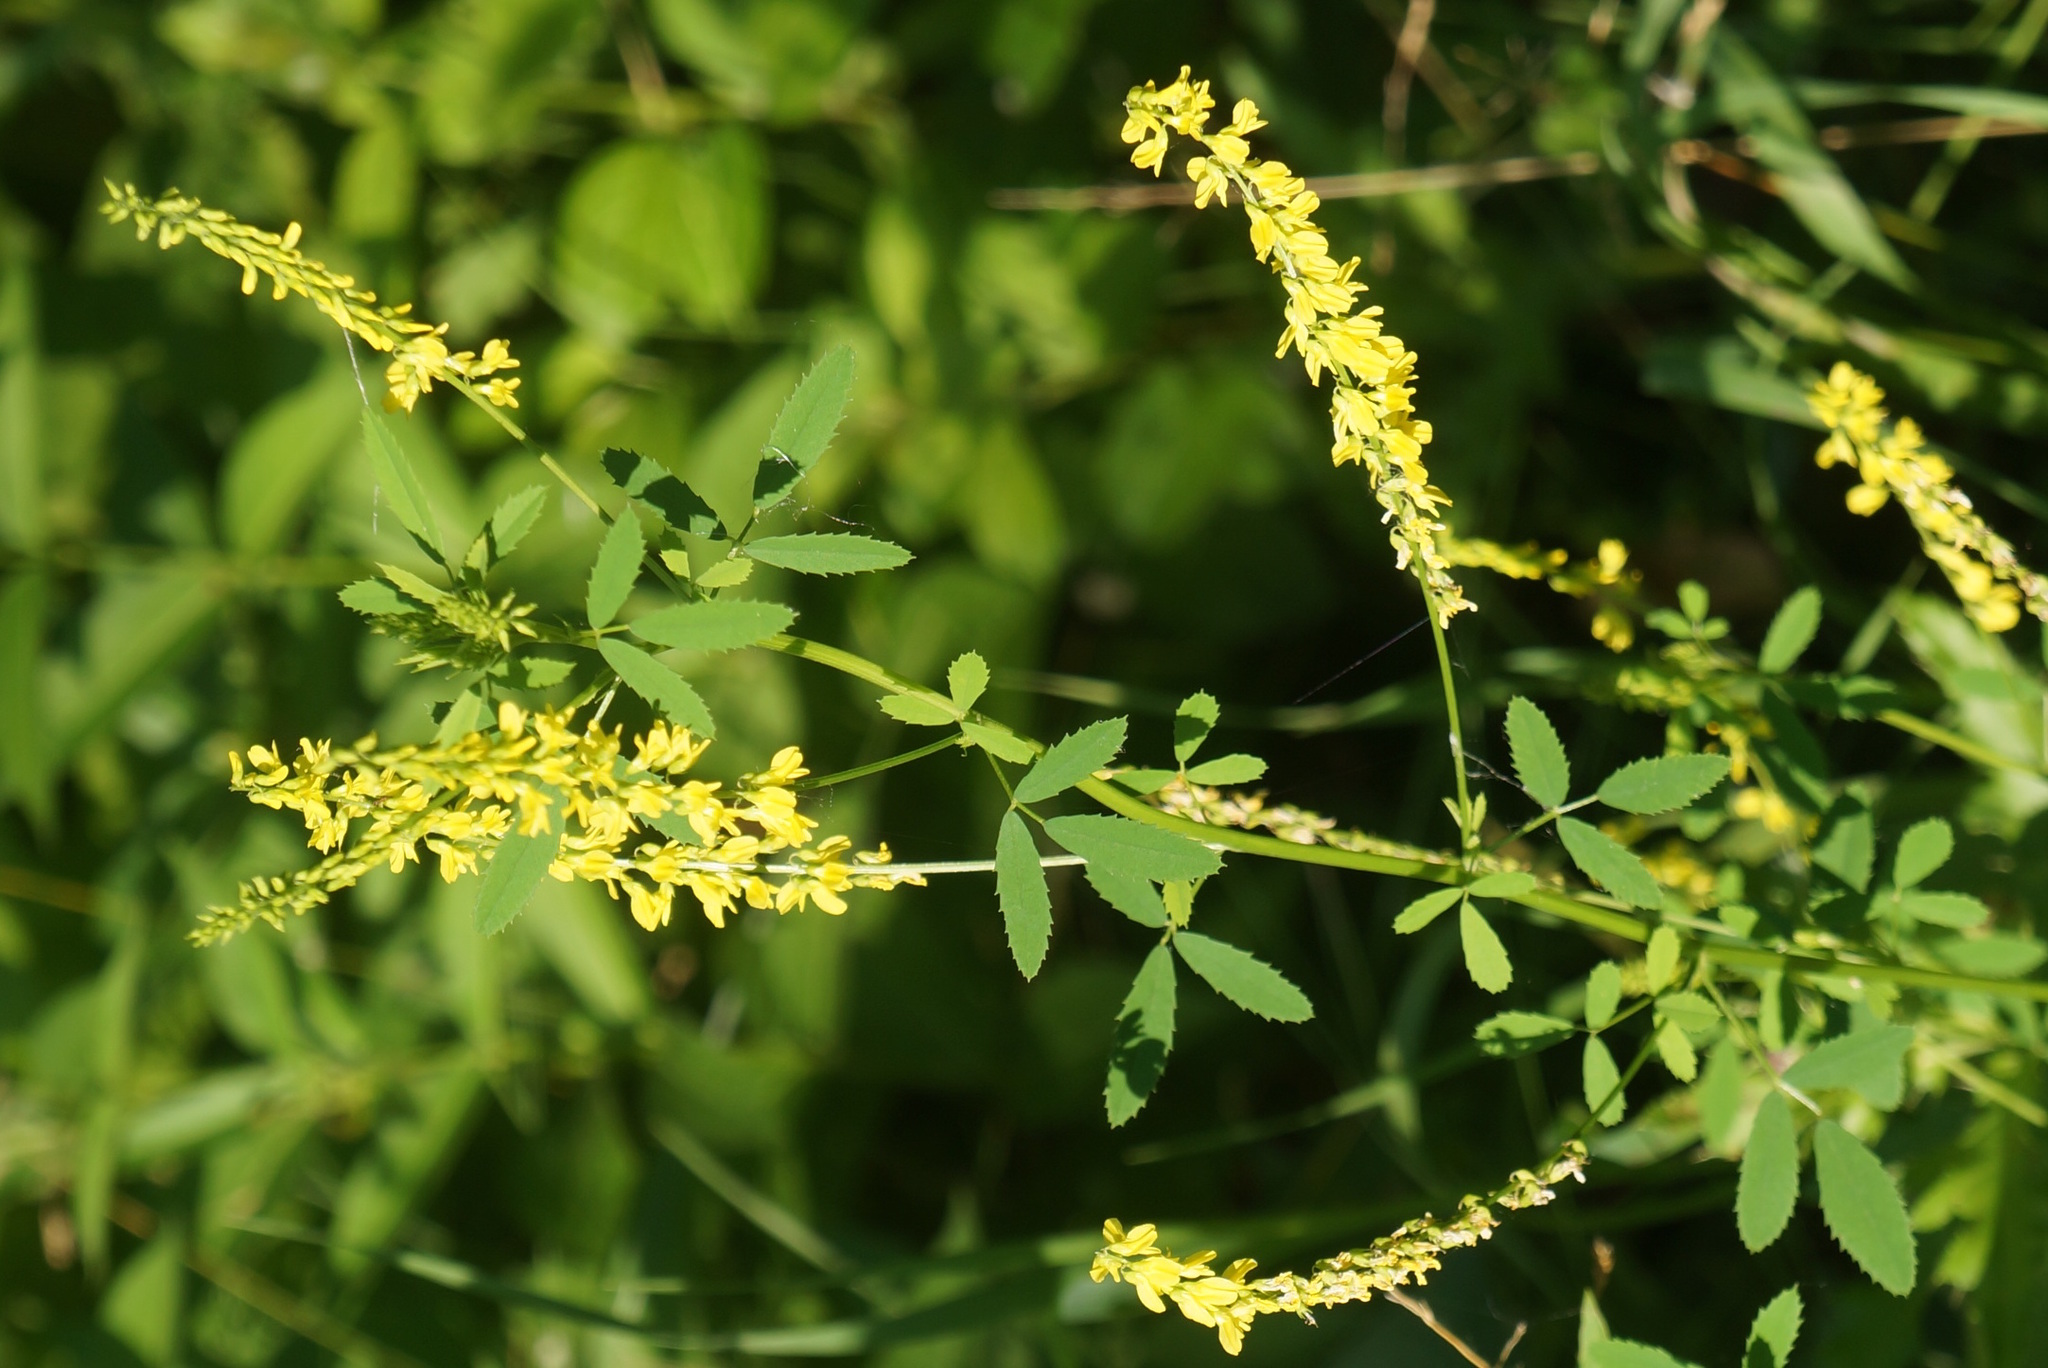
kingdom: Plantae
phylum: Tracheophyta
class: Magnoliopsida
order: Fabales
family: Fabaceae
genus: Melilotus
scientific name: Melilotus officinalis
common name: Sweetclover
